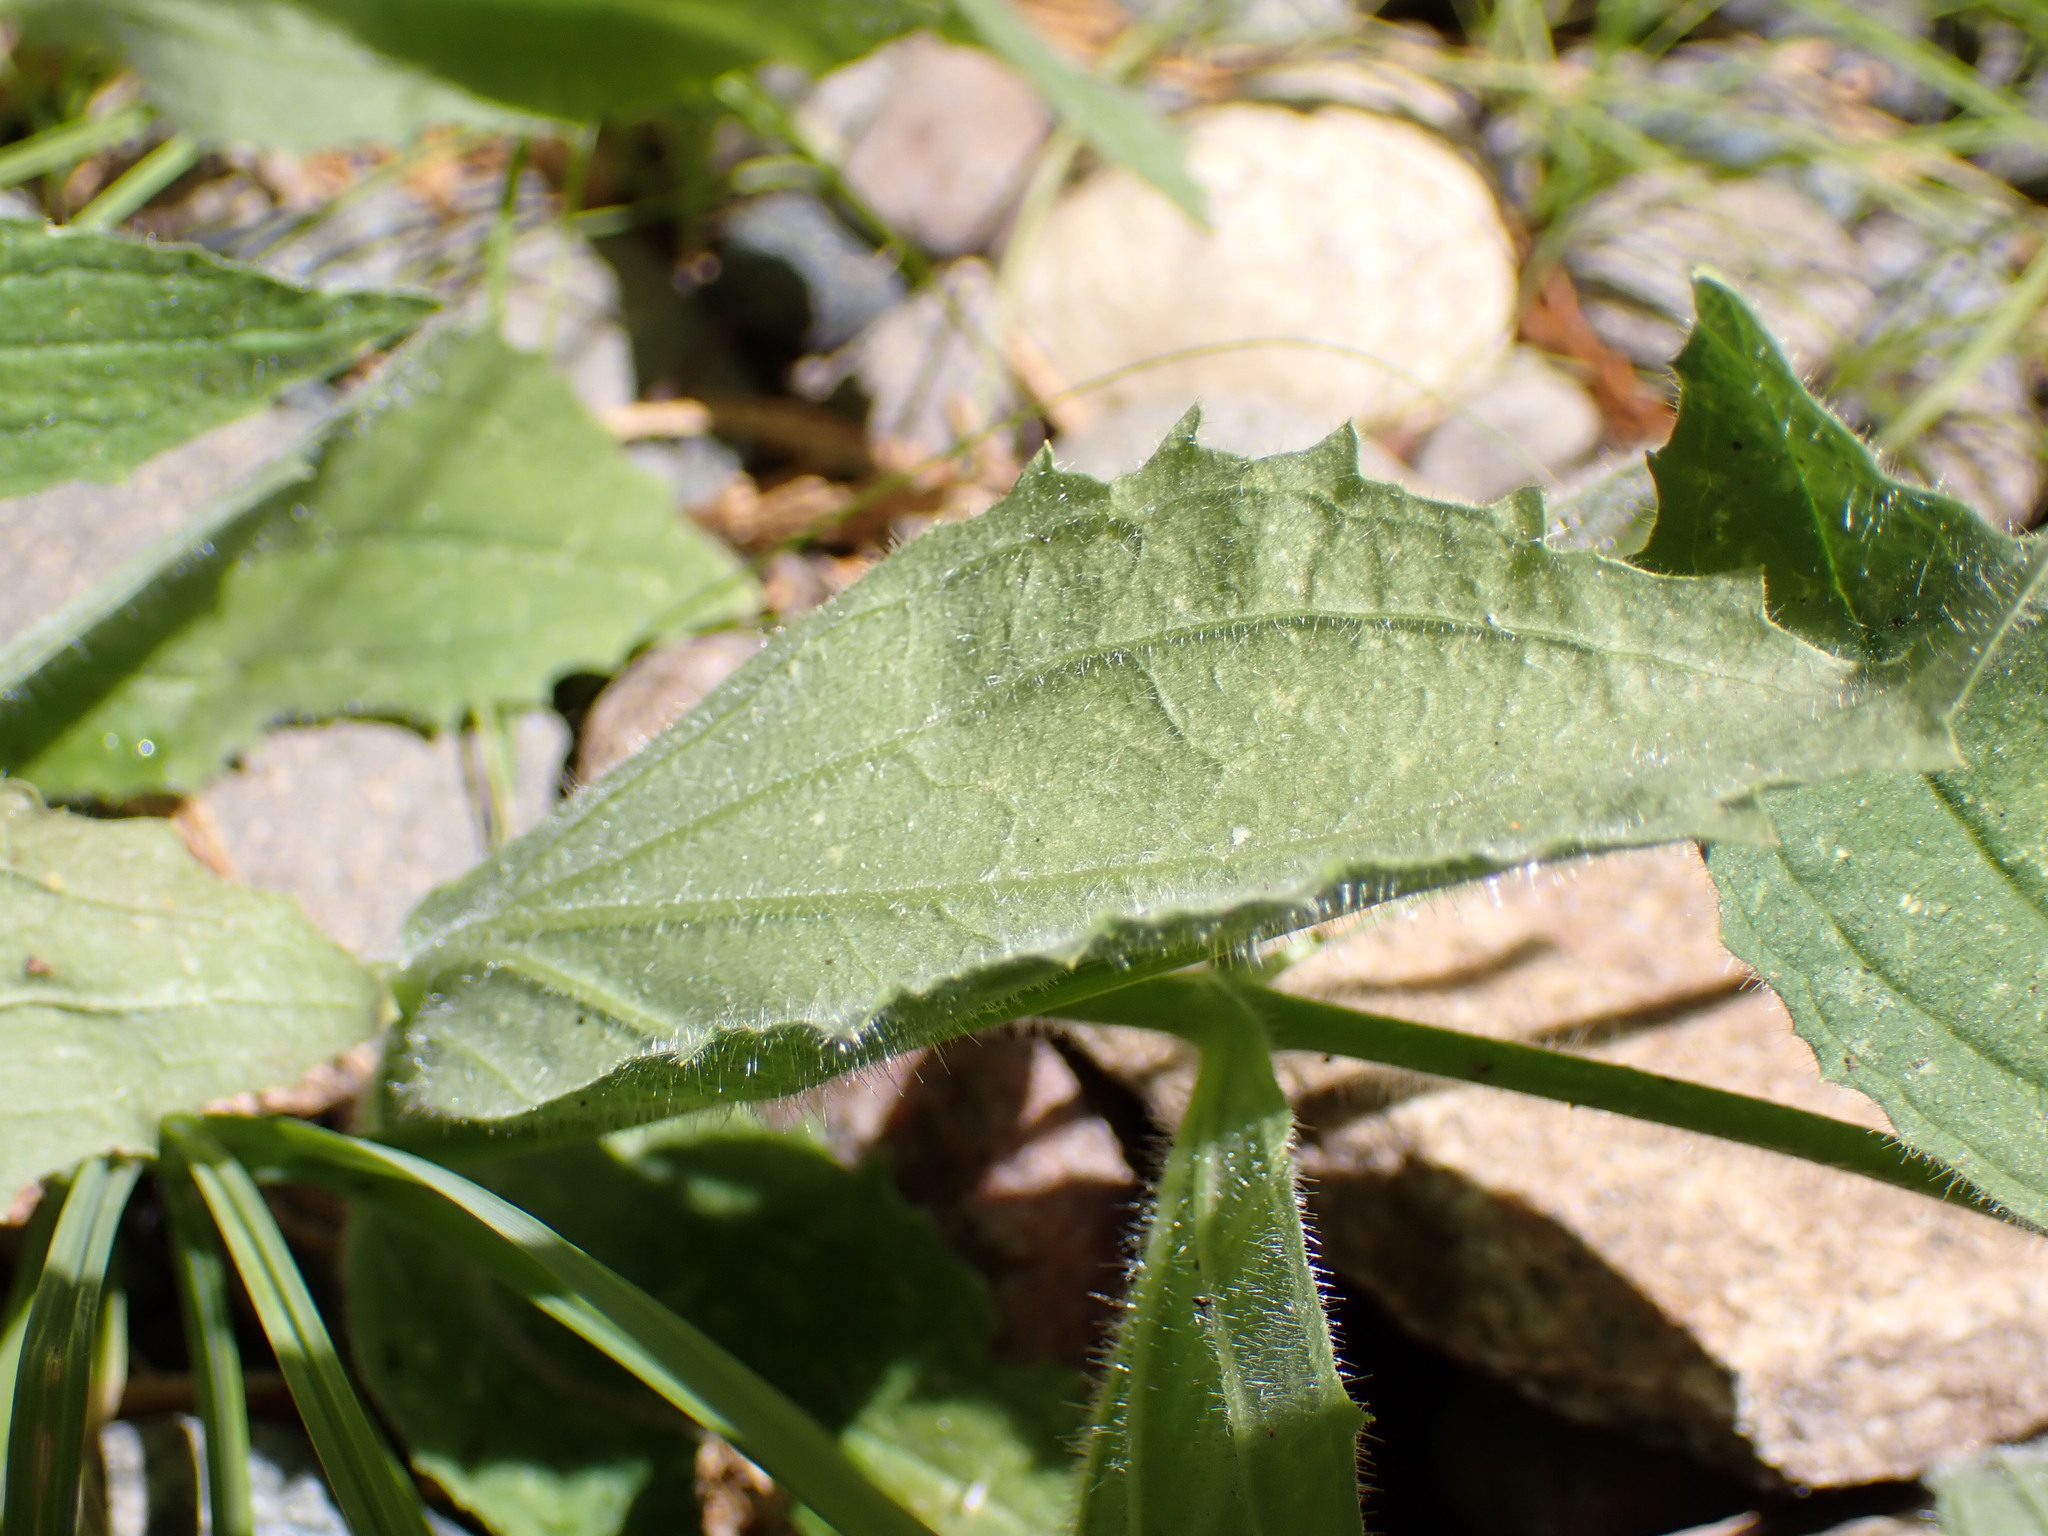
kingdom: Plantae
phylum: Tracheophyta
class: Magnoliopsida
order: Lamiales
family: Phrymaceae
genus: Erythranthe
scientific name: Erythranthe cardinalis
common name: Scarlet monkey-flower
